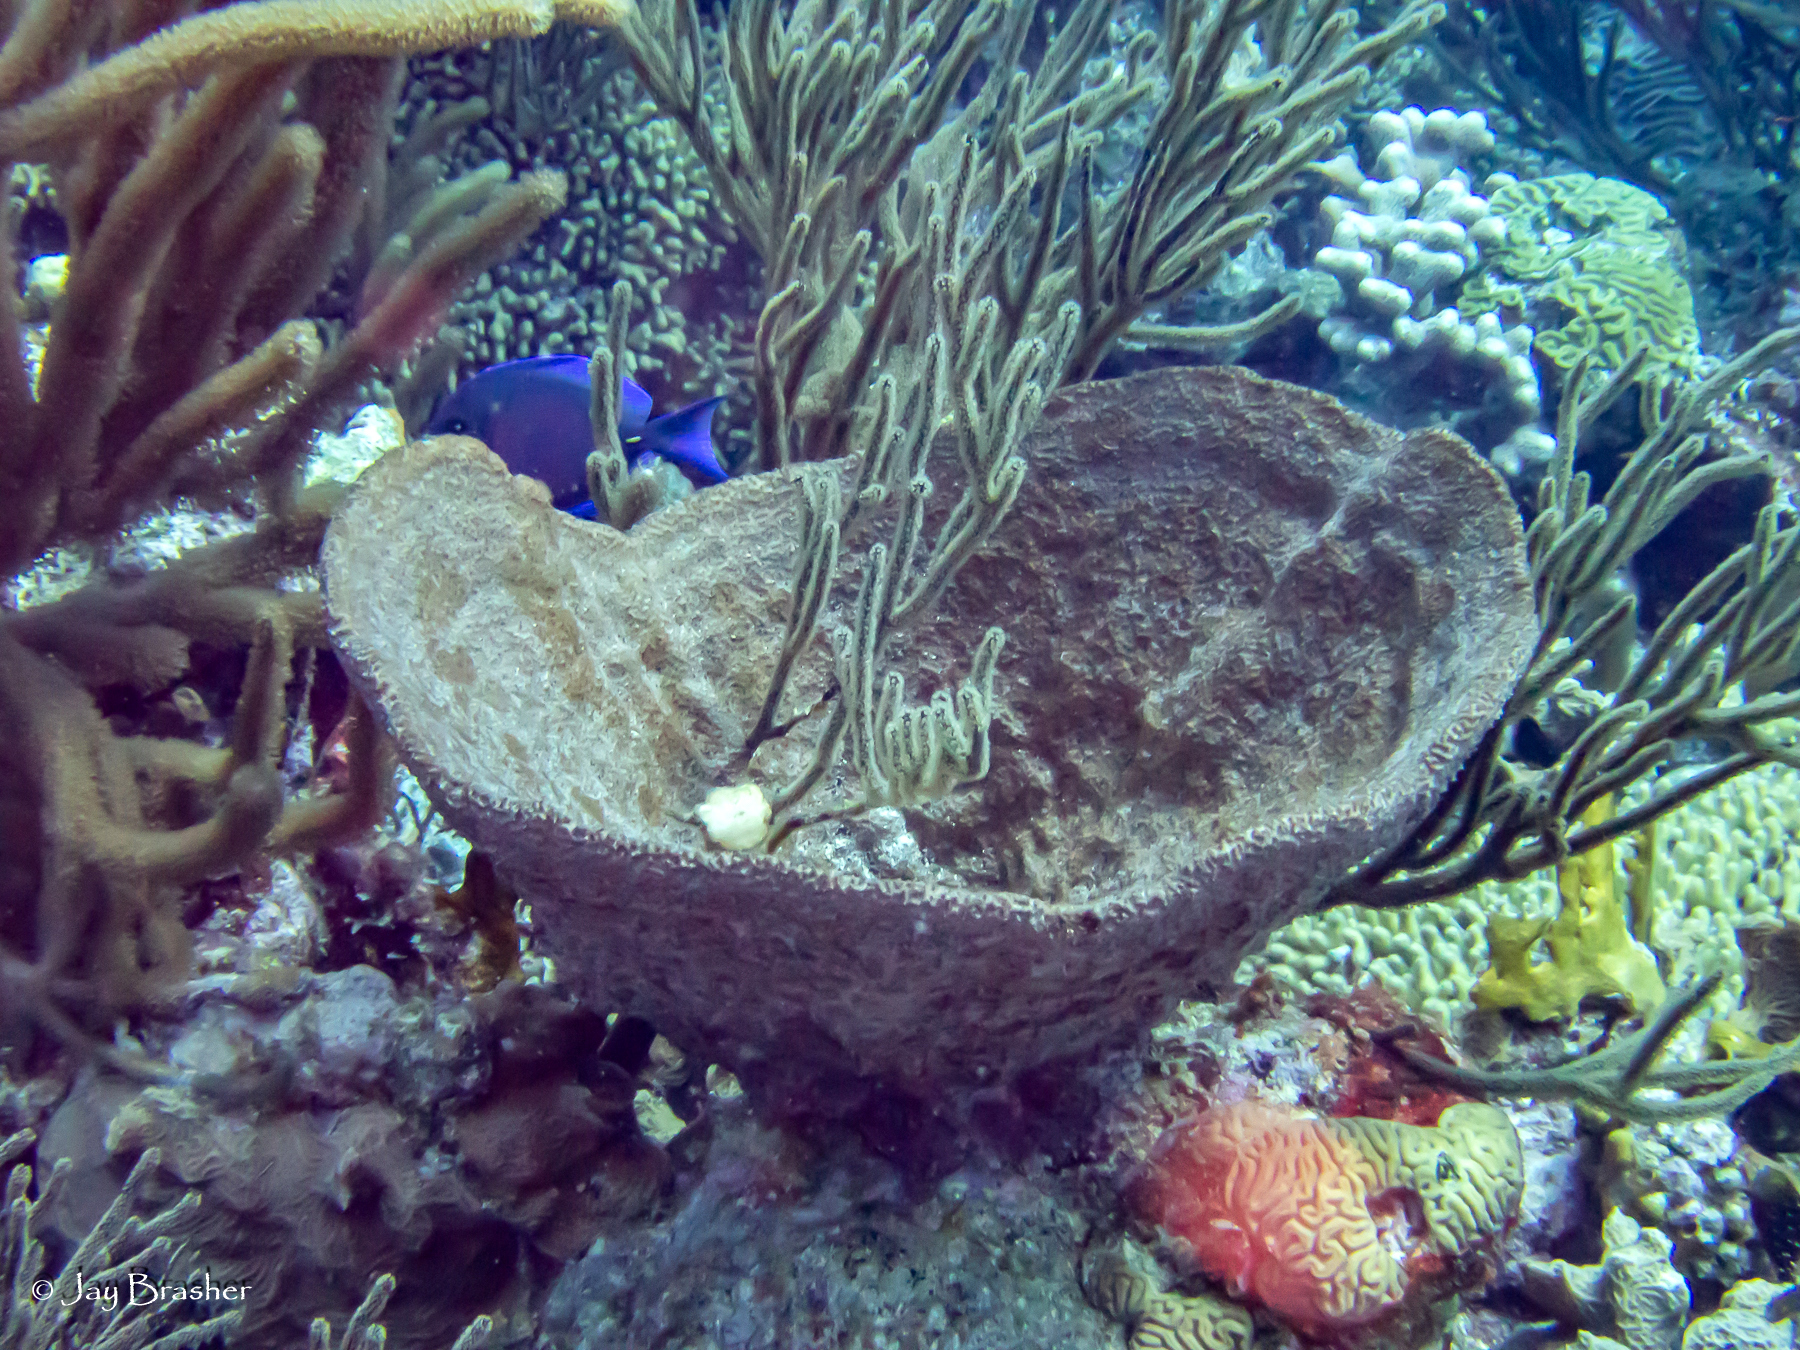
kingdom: Animalia
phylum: Porifera
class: Demospongiae
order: Dictyoceratida
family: Irciniidae
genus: Ircinia
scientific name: Ircinia campana
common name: Vase sponge
